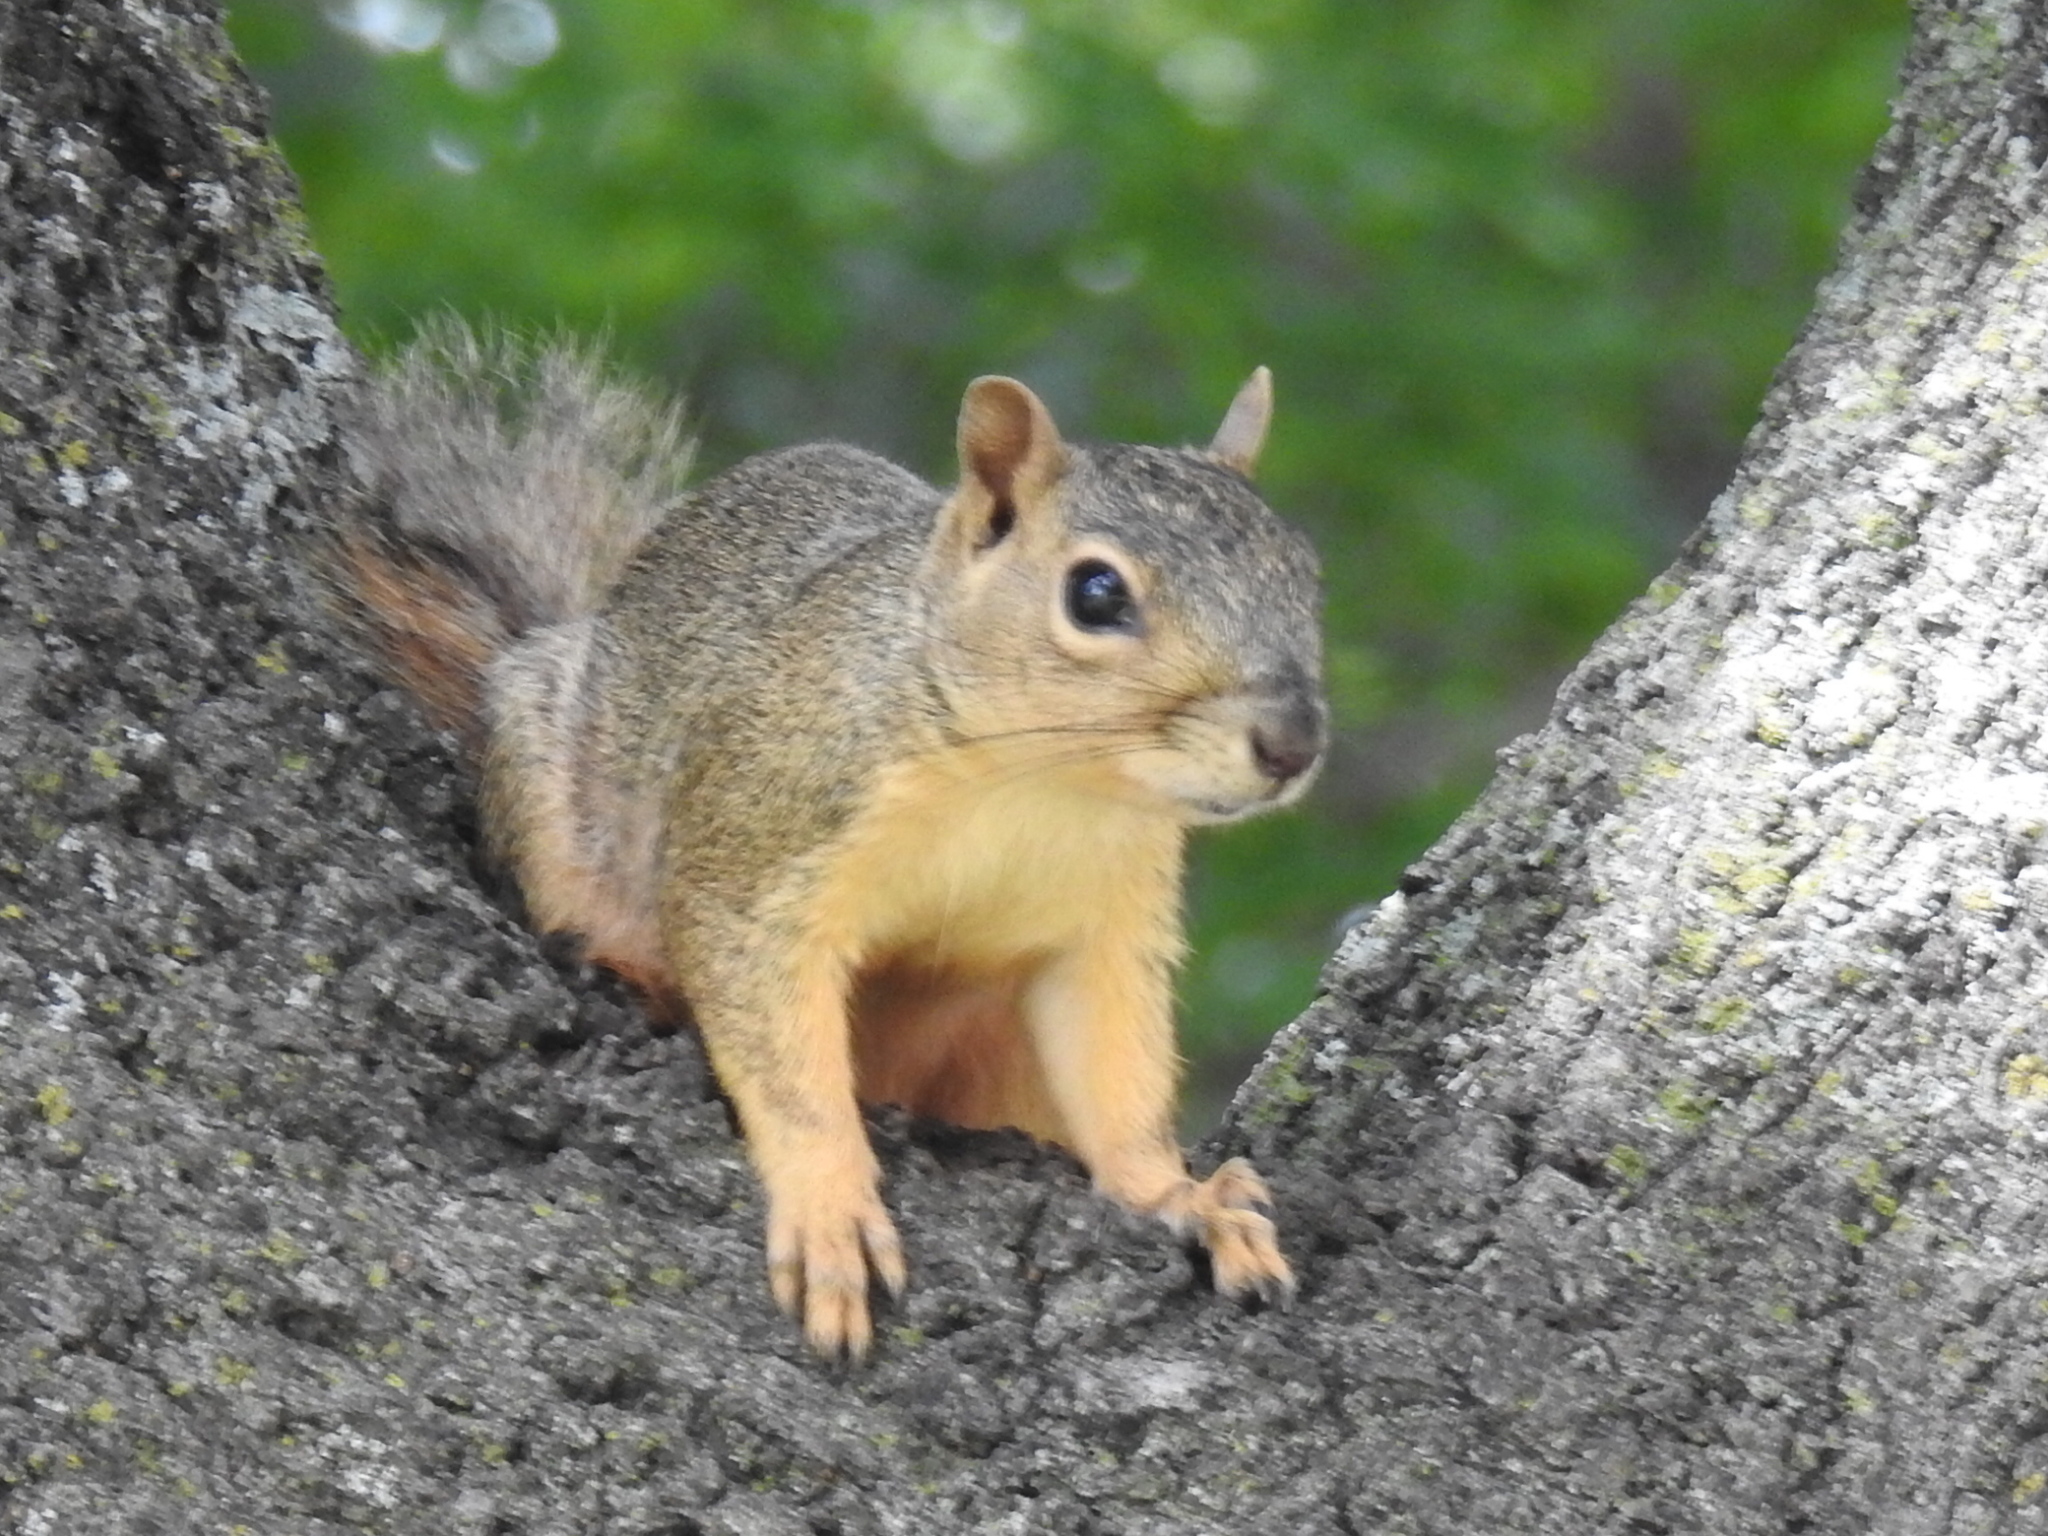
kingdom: Animalia
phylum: Chordata
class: Mammalia
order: Rodentia
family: Sciuridae
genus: Sciurus
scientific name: Sciurus niger
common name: Fox squirrel
